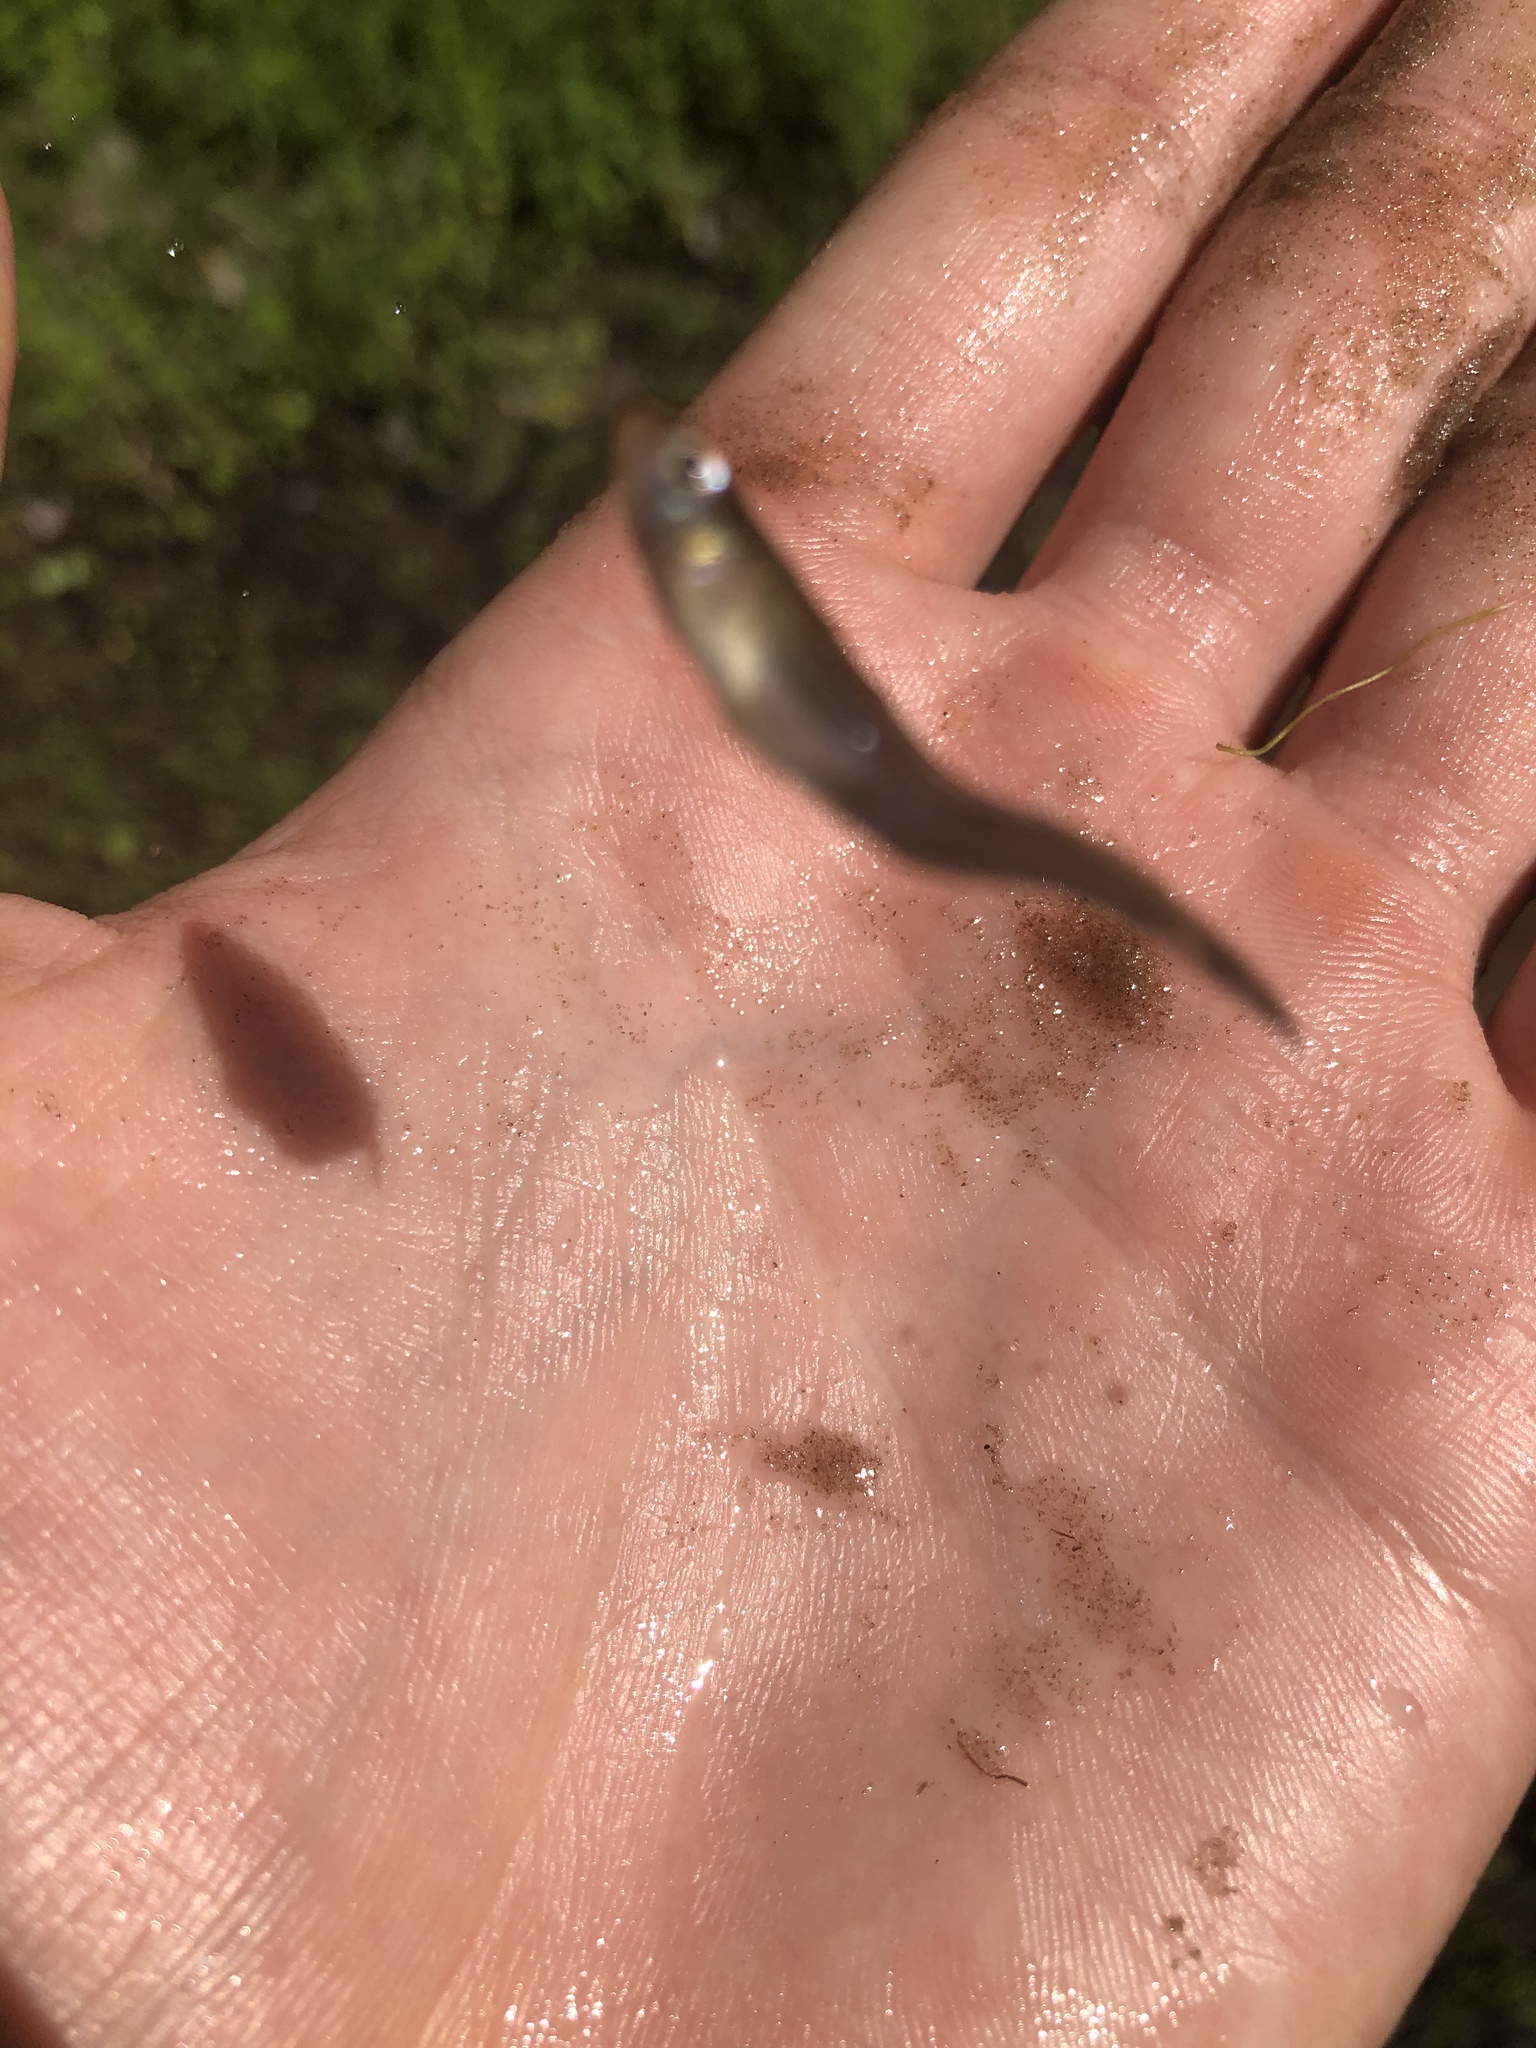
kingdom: Animalia
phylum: Chordata
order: Cyprinodontiformes
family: Poeciliidae
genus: Gambusia
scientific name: Gambusia holbrooki
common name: Eastern mosquitofish
